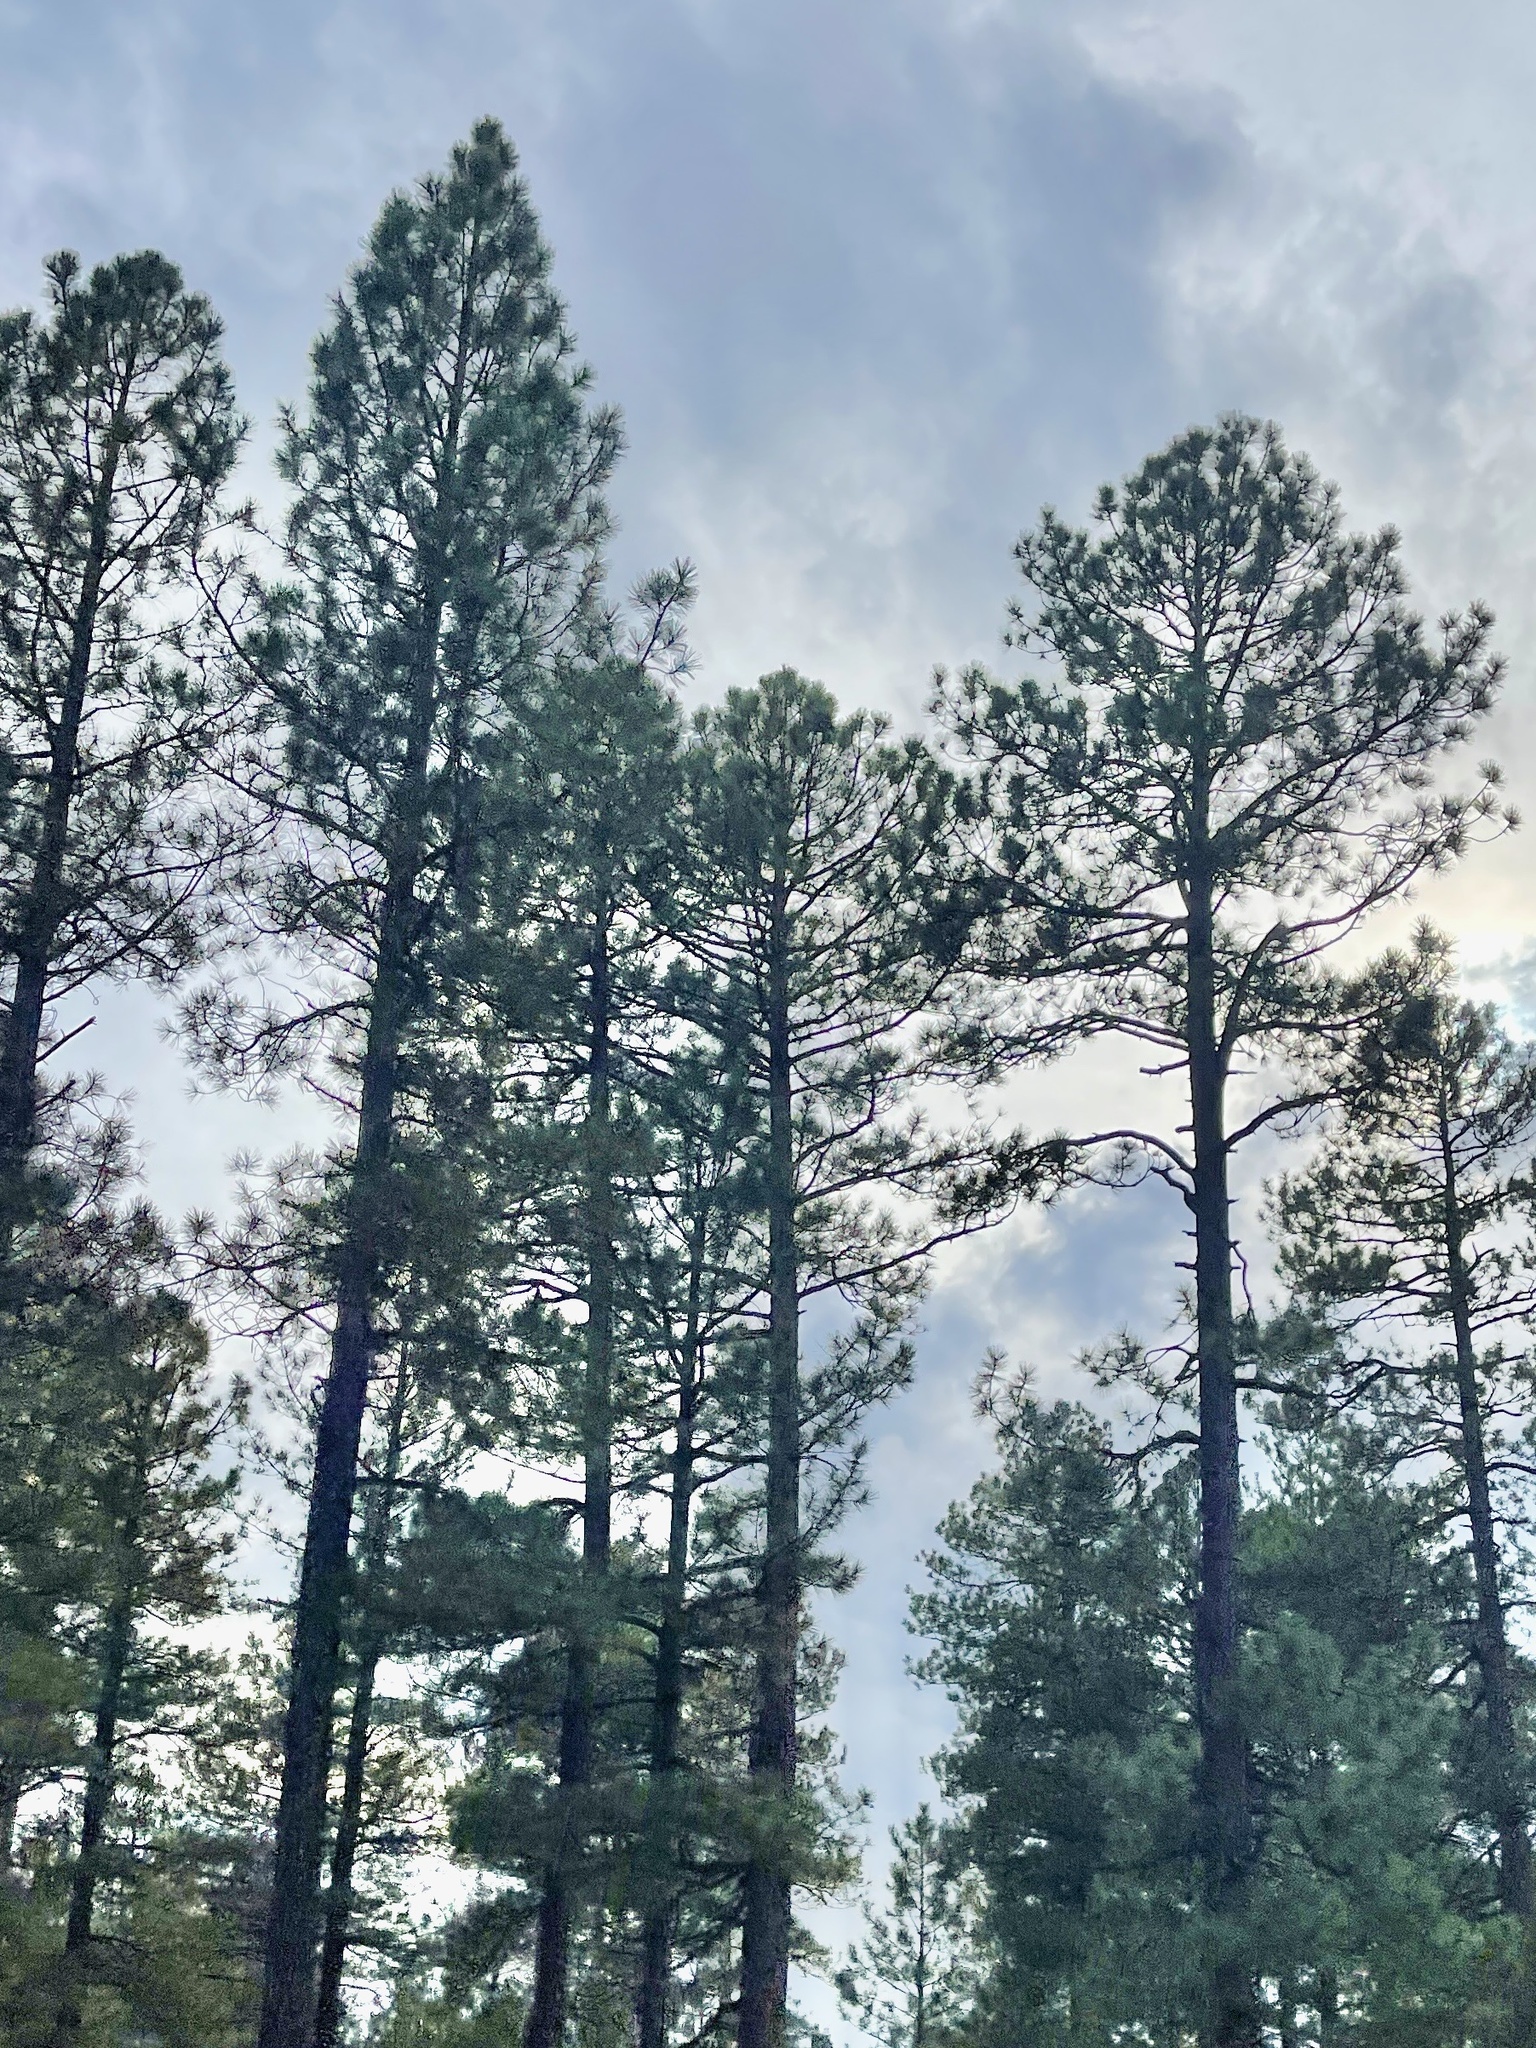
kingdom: Plantae
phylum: Tracheophyta
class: Pinopsida
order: Pinales
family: Pinaceae
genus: Pinus
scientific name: Pinus ponderosa
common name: Western yellow-pine
